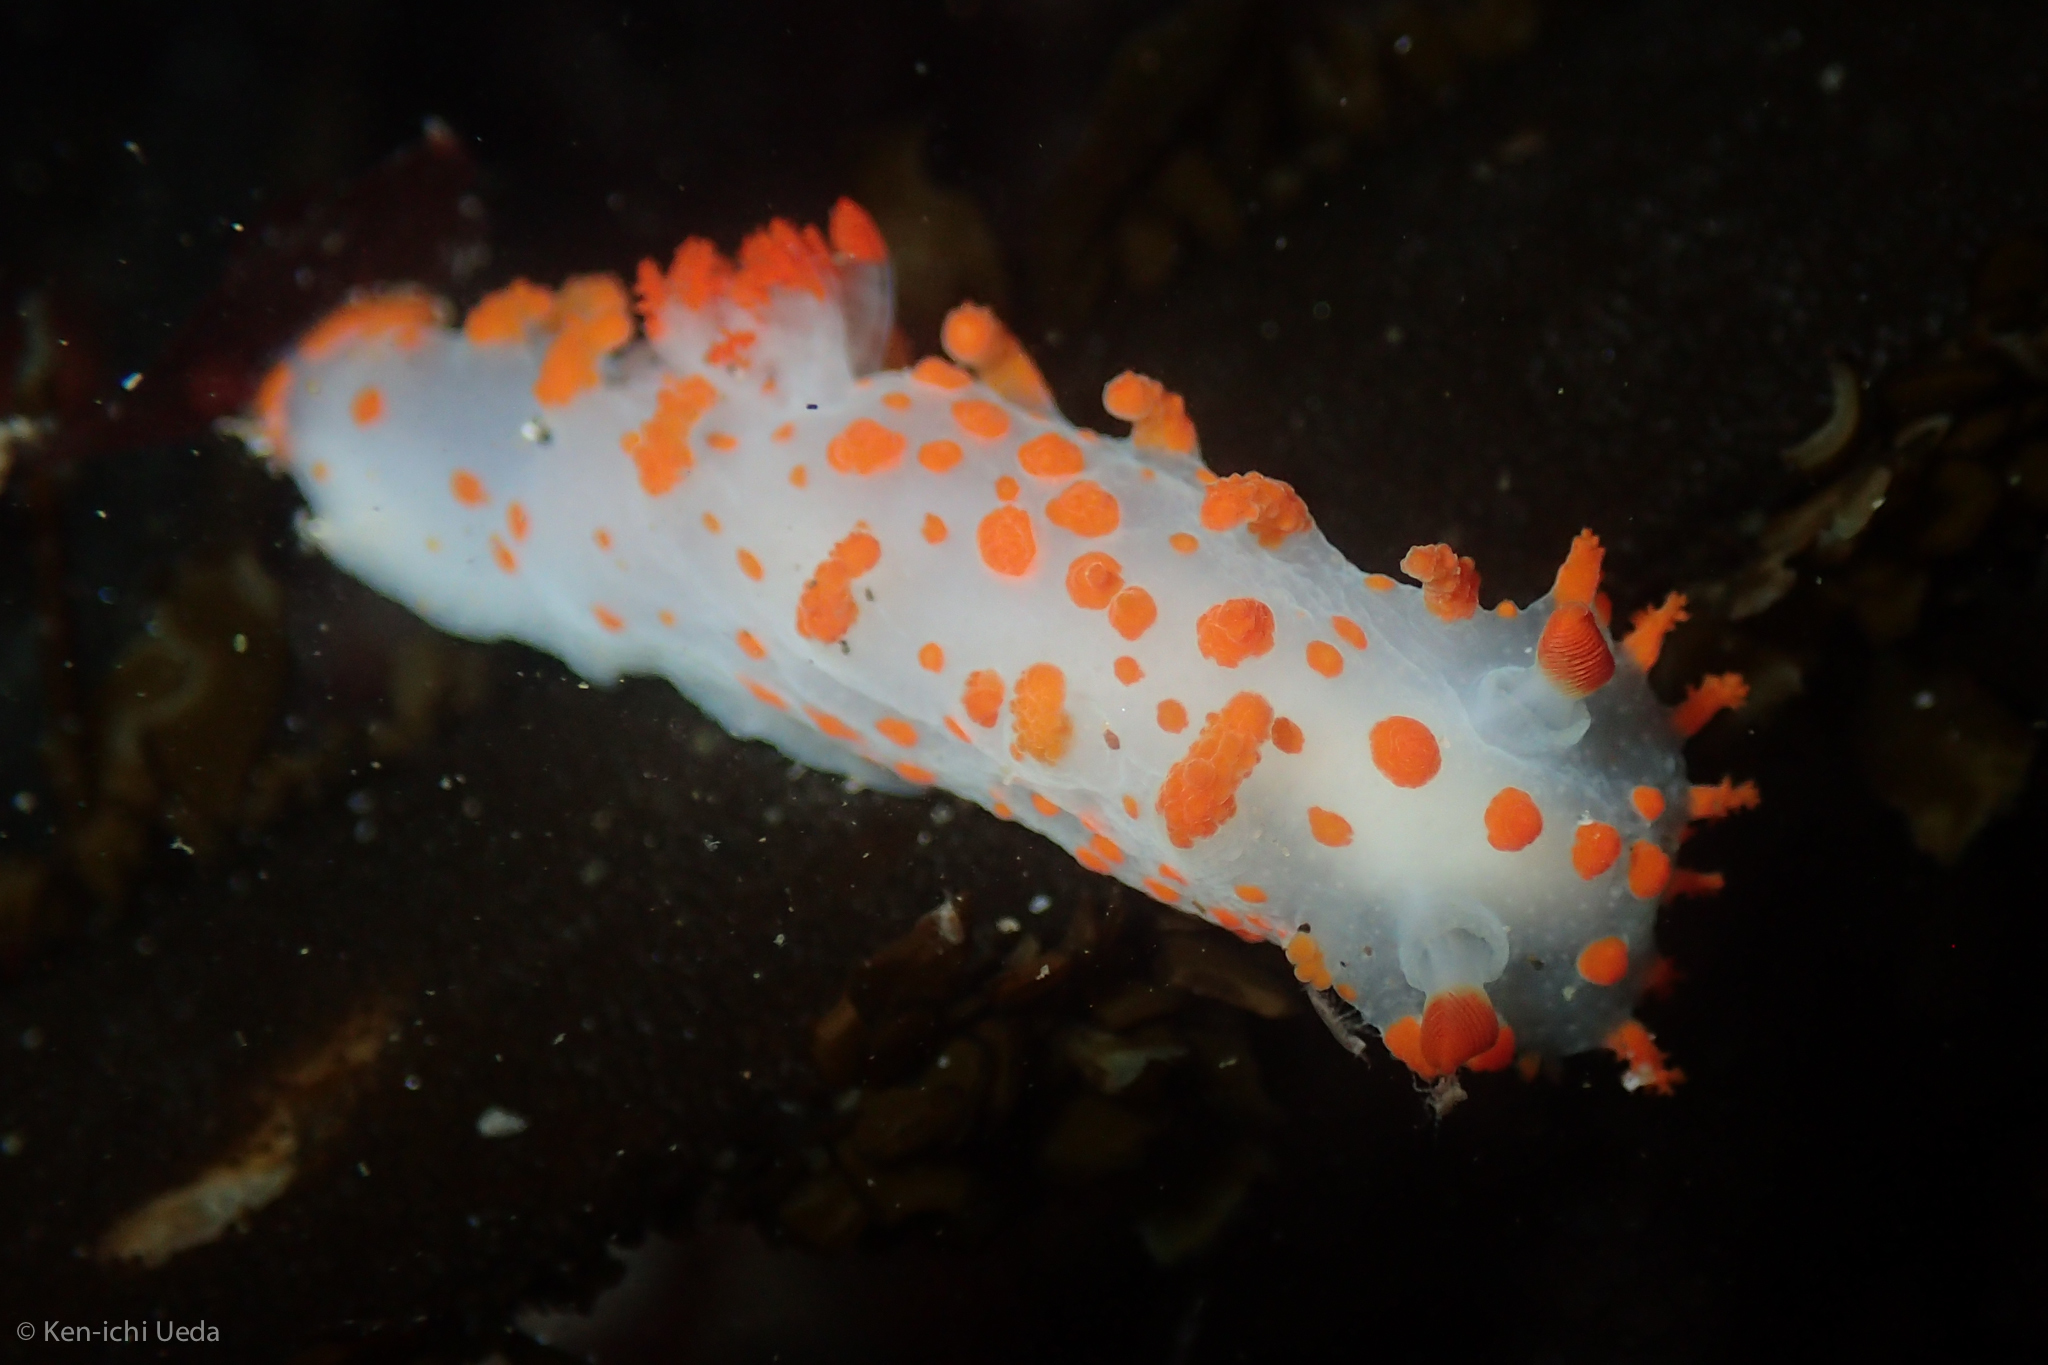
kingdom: Animalia
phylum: Mollusca
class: Gastropoda
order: Nudibranchia
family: Polyceridae
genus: Triopha
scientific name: Triopha catalinae
